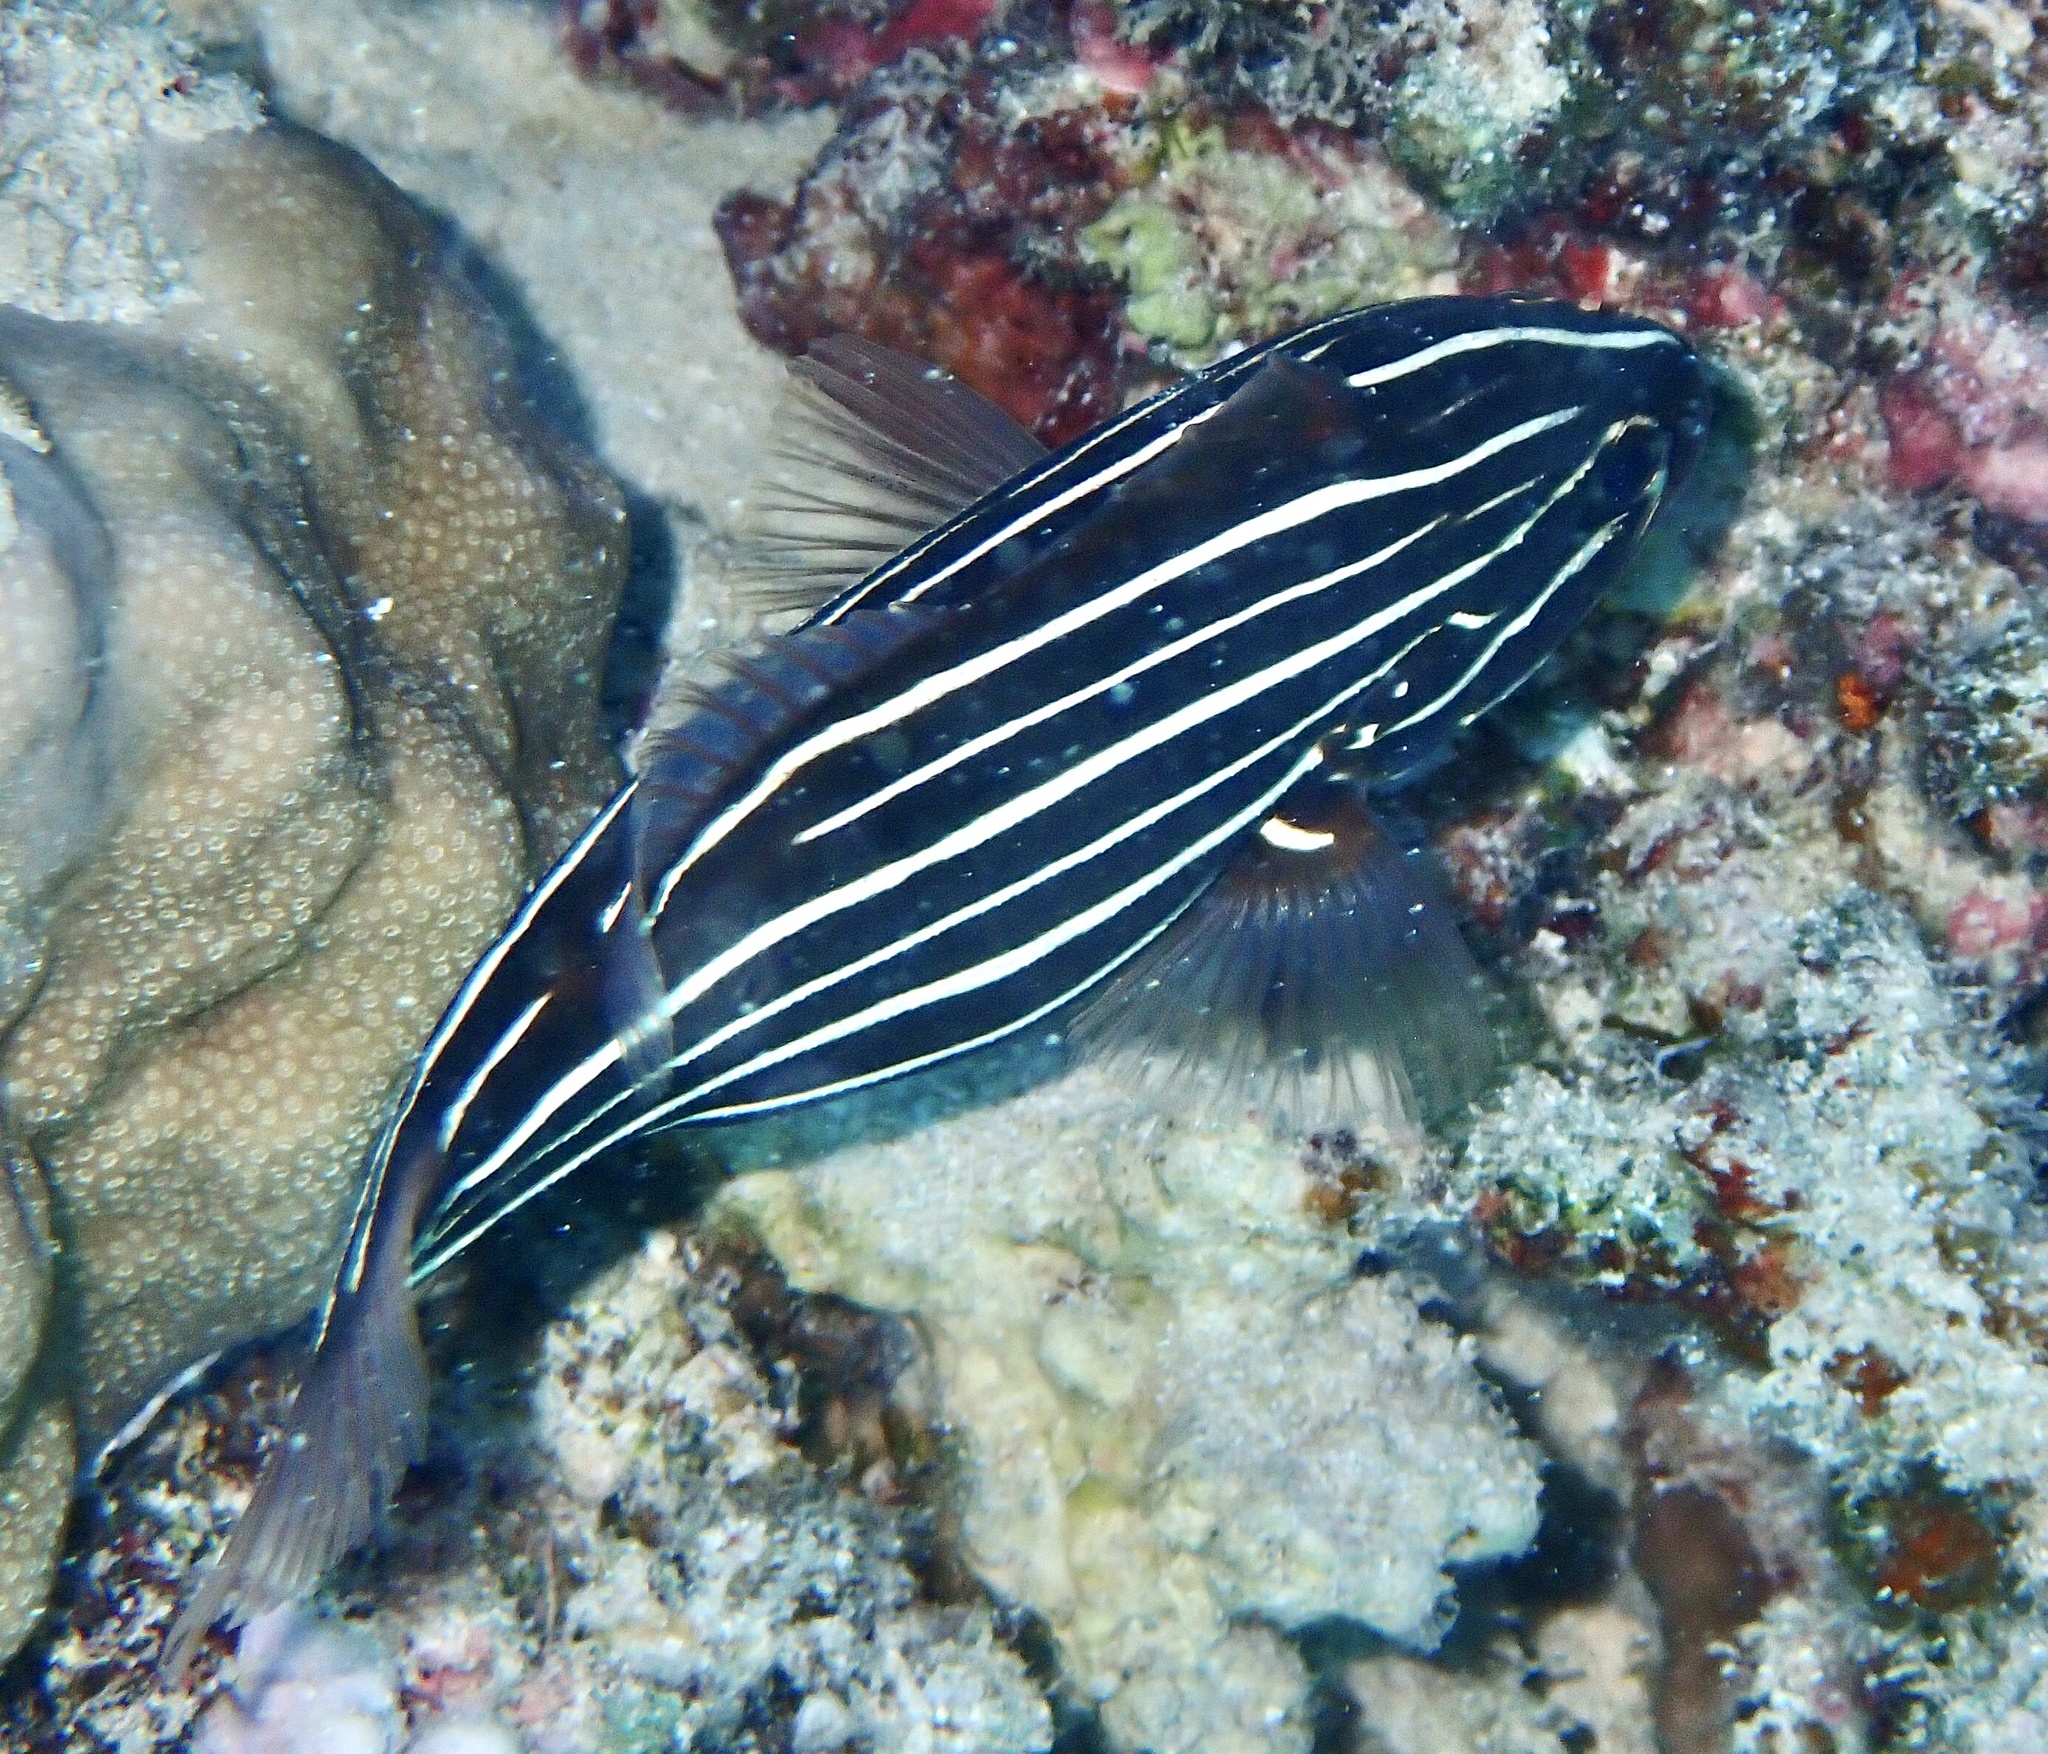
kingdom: Animalia
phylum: Chordata
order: Perciformes
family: Serranidae
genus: Grammistes
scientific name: Grammistes sexlineatus
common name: Sixline soapfish
